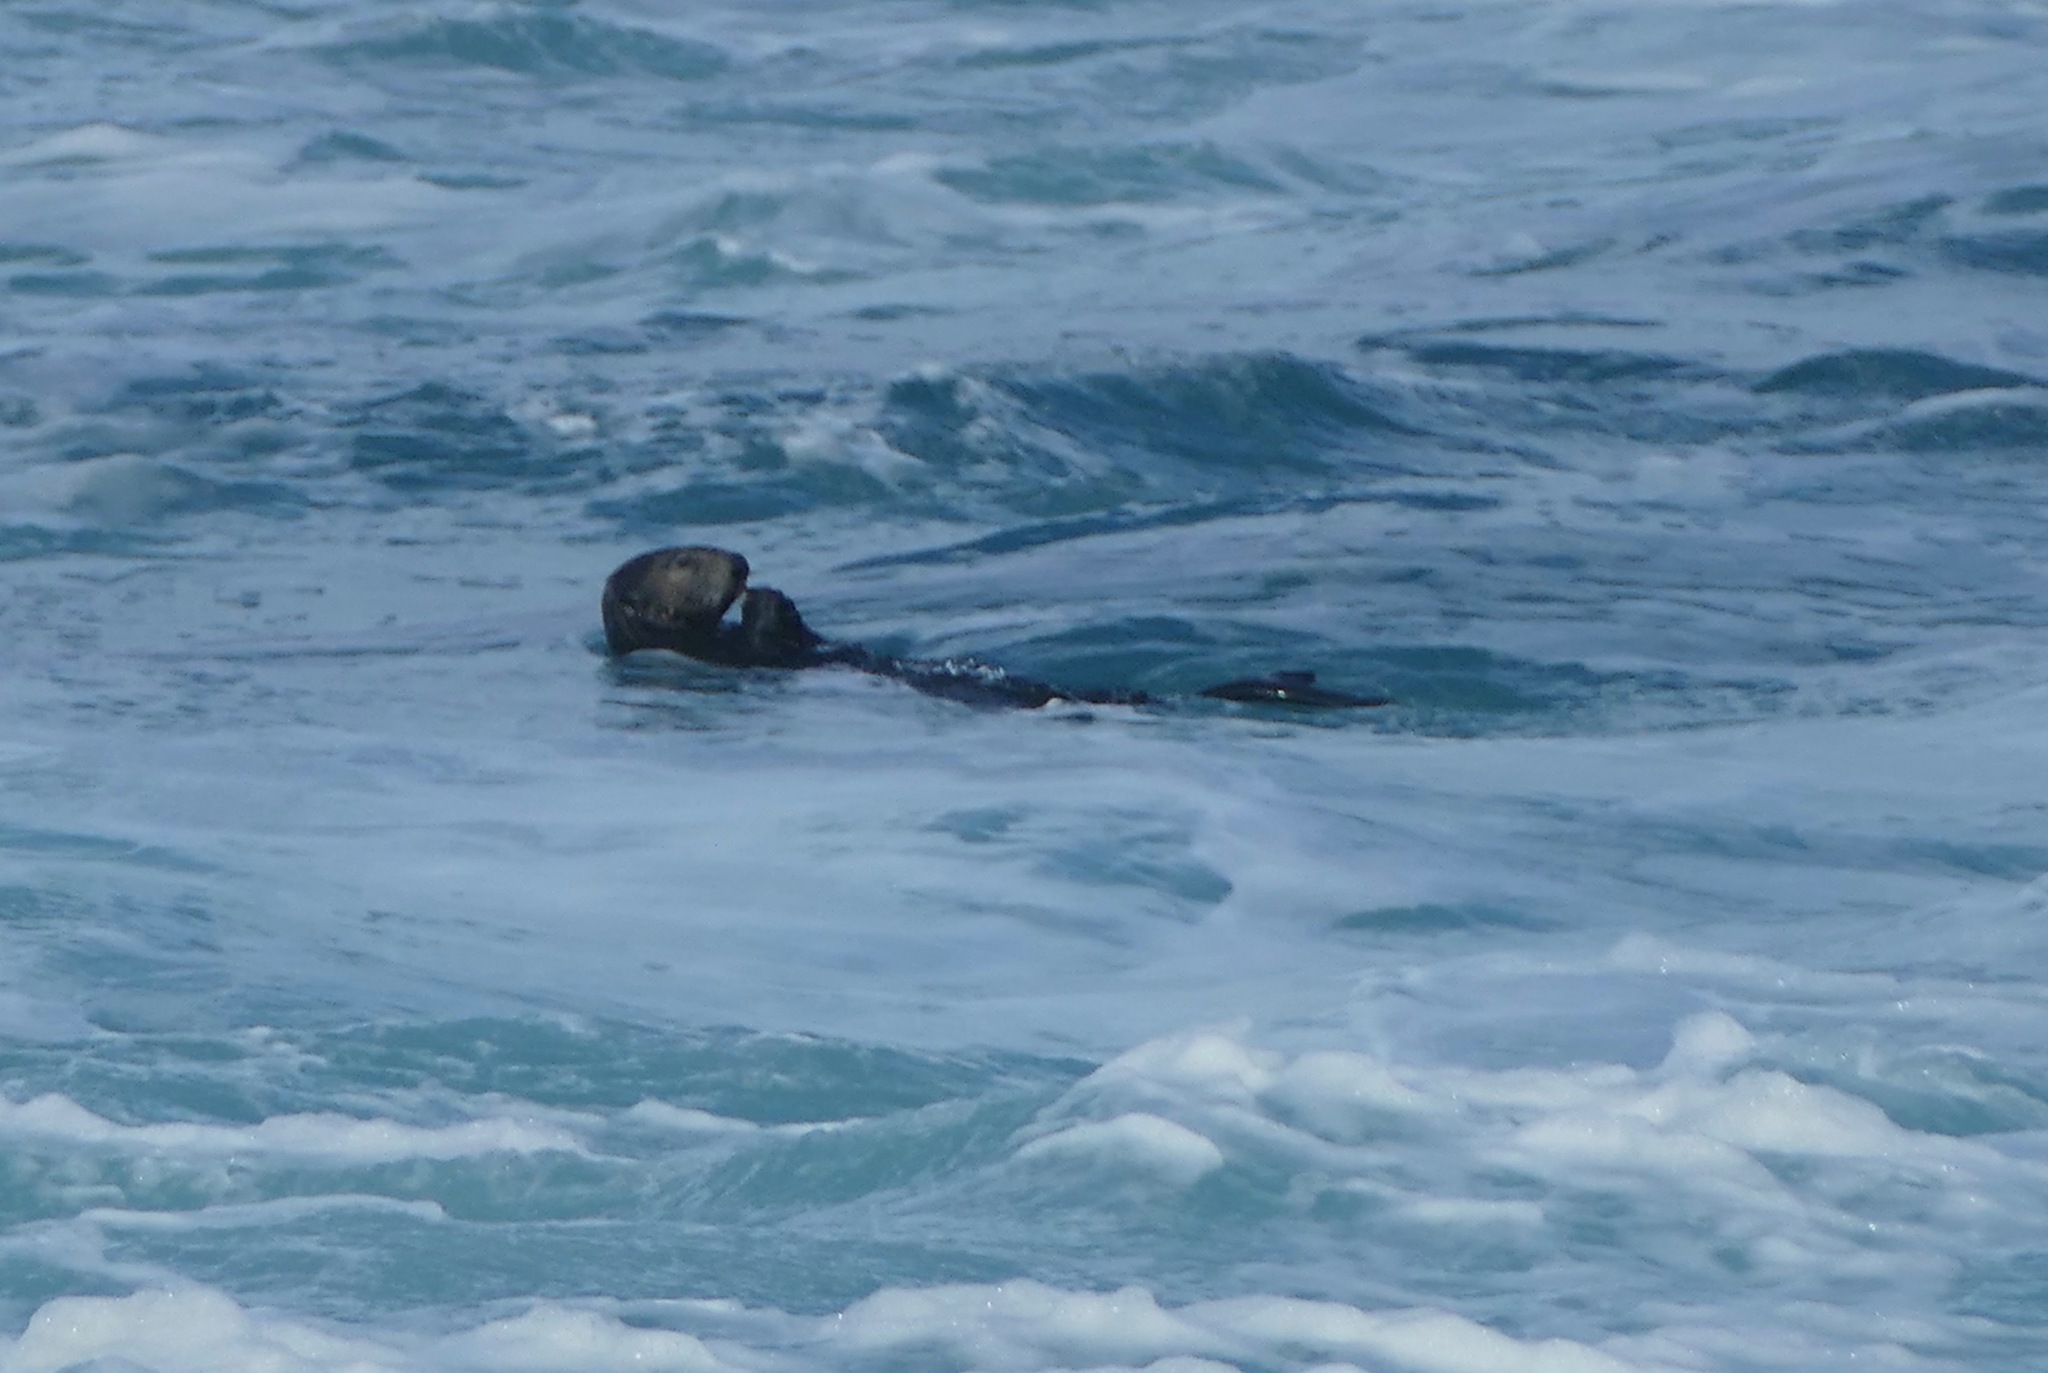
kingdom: Animalia
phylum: Chordata
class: Mammalia
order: Carnivora
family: Mustelidae
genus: Enhydra
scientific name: Enhydra lutris
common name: Sea otter
